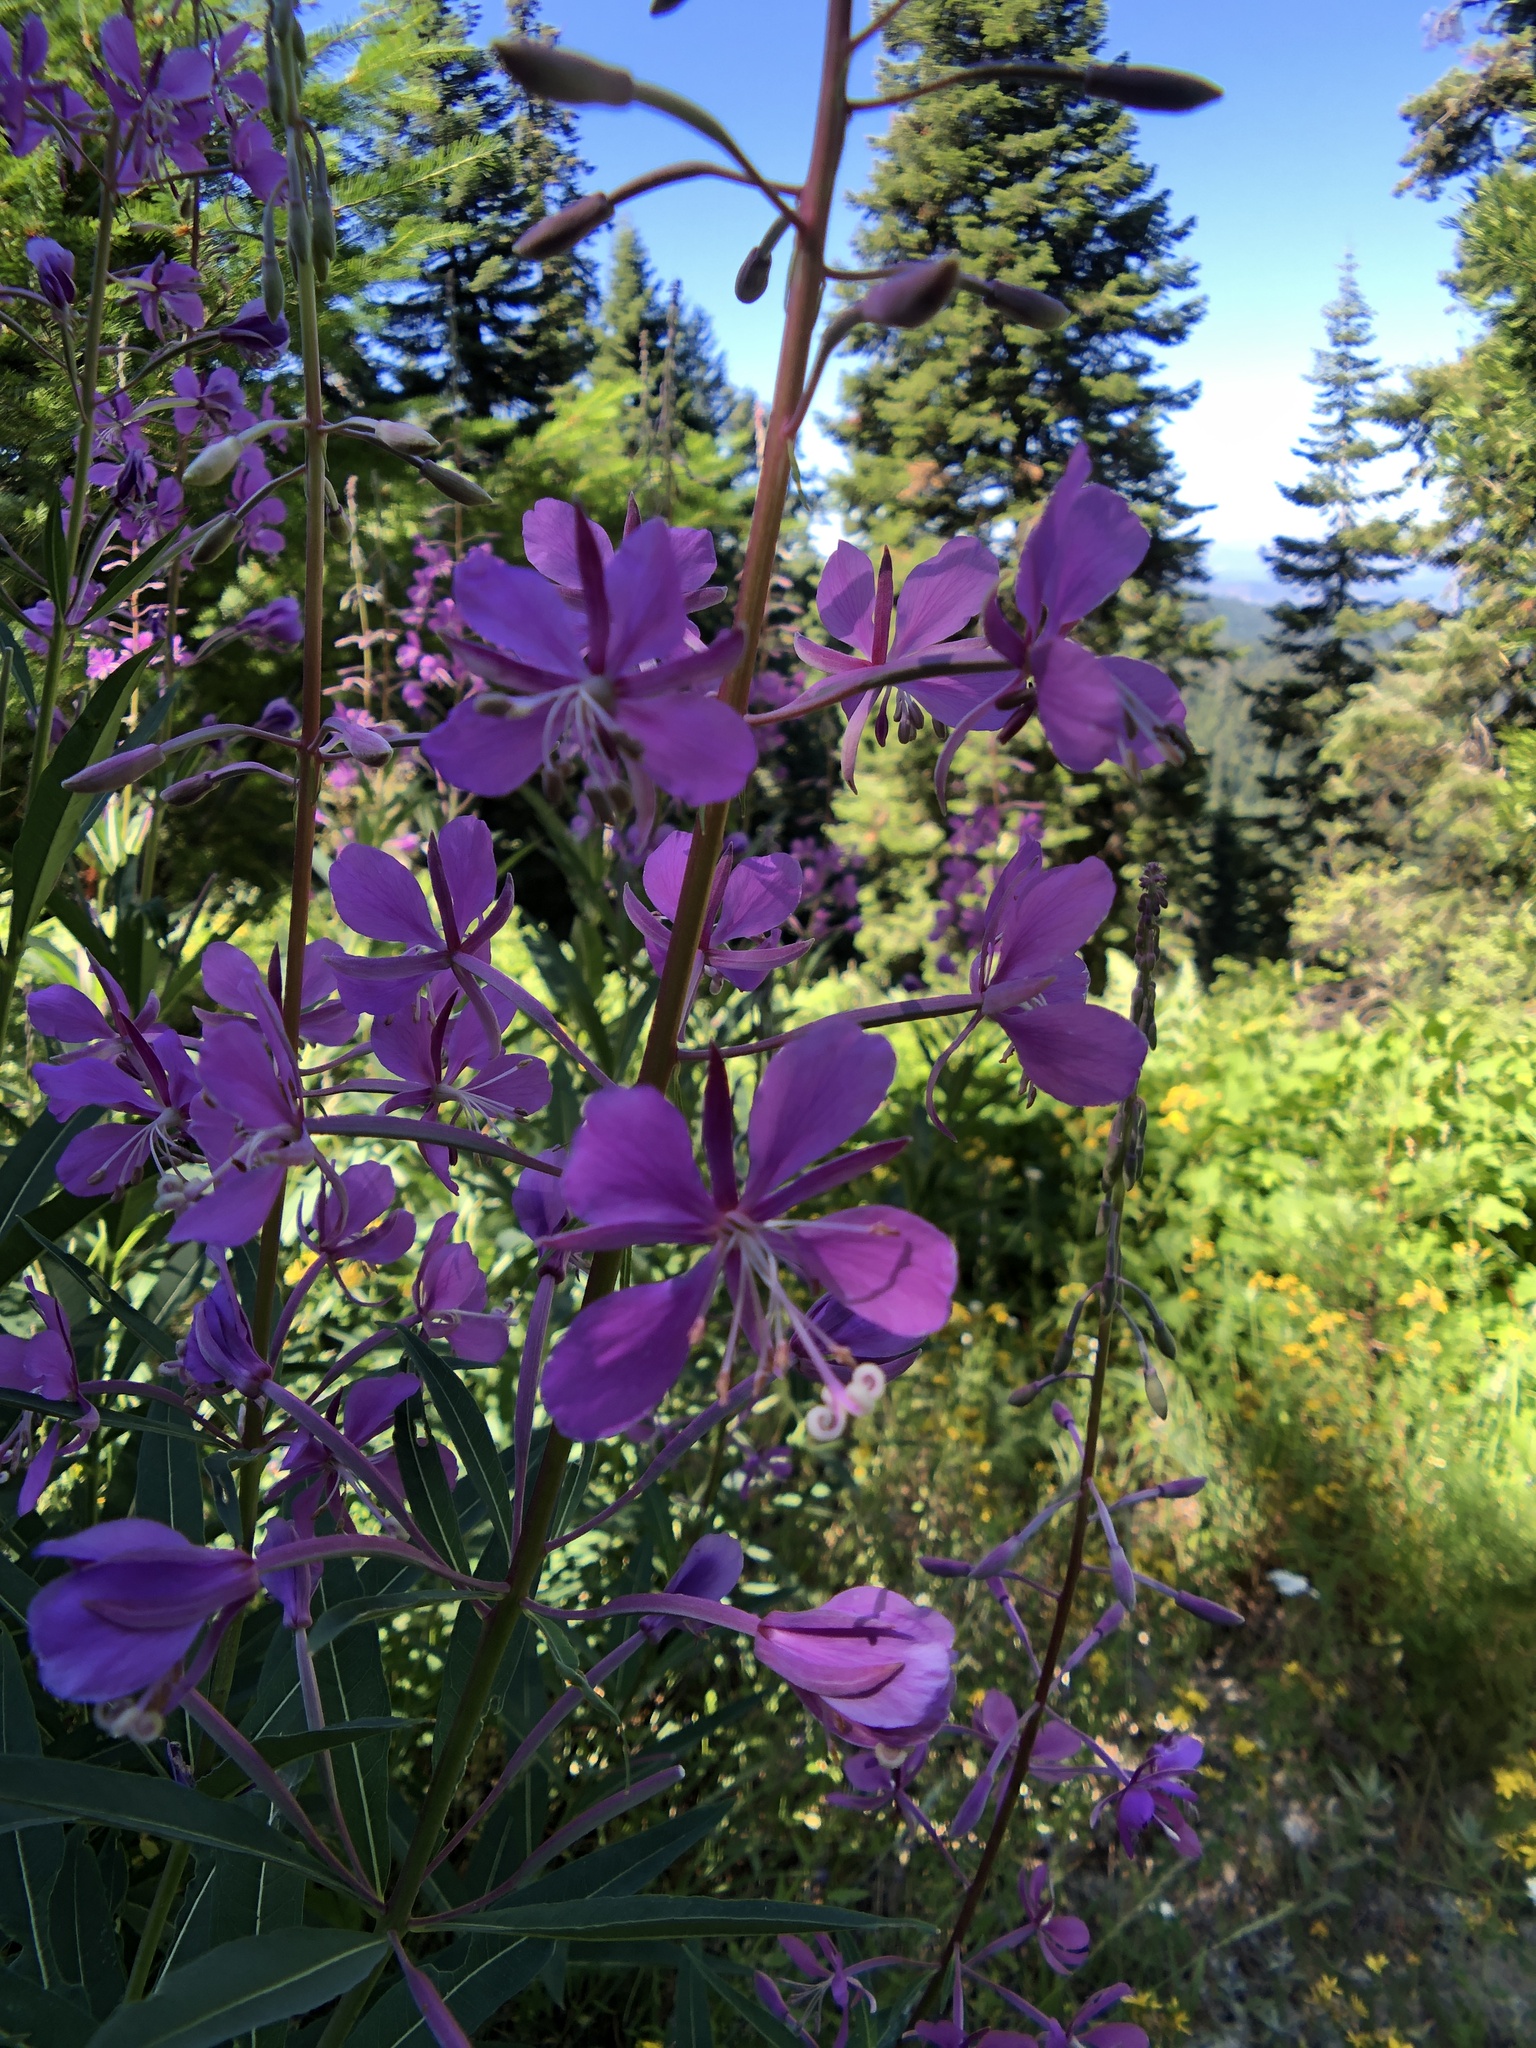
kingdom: Plantae
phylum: Tracheophyta
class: Magnoliopsida
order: Myrtales
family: Onagraceae
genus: Chamaenerion
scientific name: Chamaenerion angustifolium
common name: Fireweed
